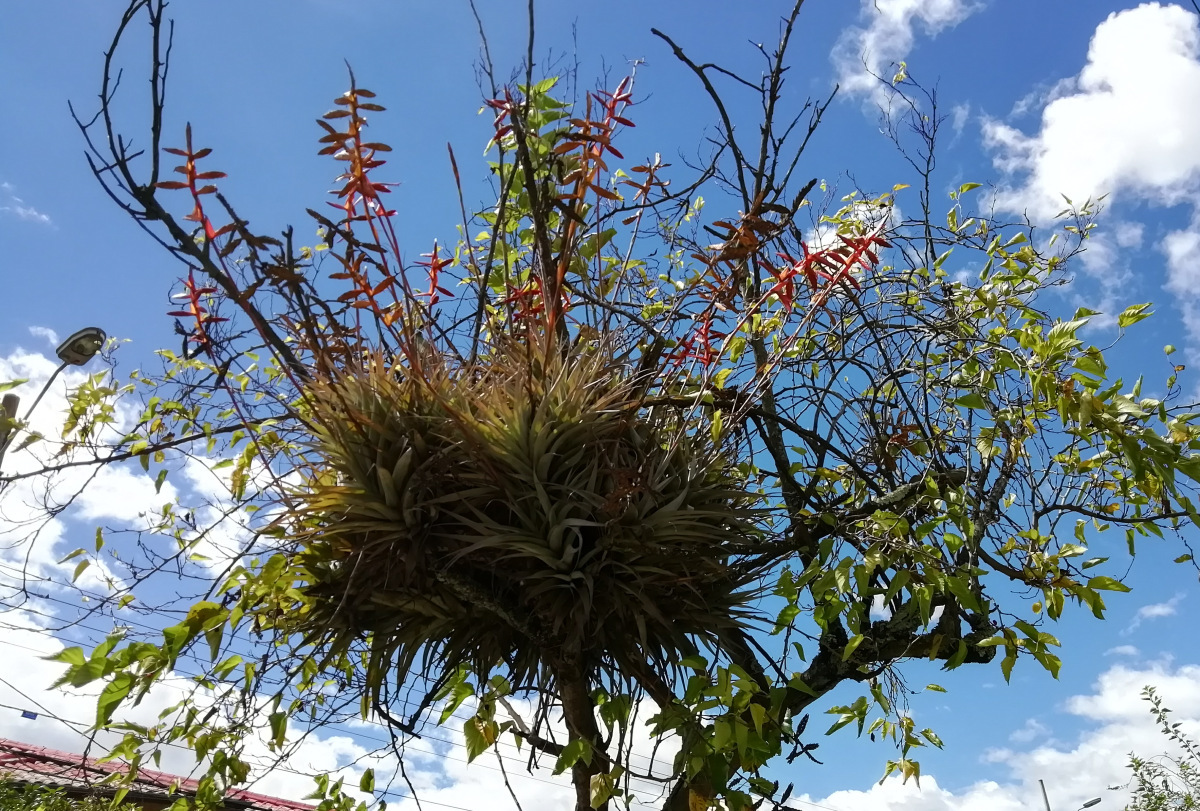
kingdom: Plantae
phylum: Tracheophyta
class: Liliopsida
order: Poales
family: Bromeliaceae
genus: Tillandsia
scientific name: Tillandsia latifolia
